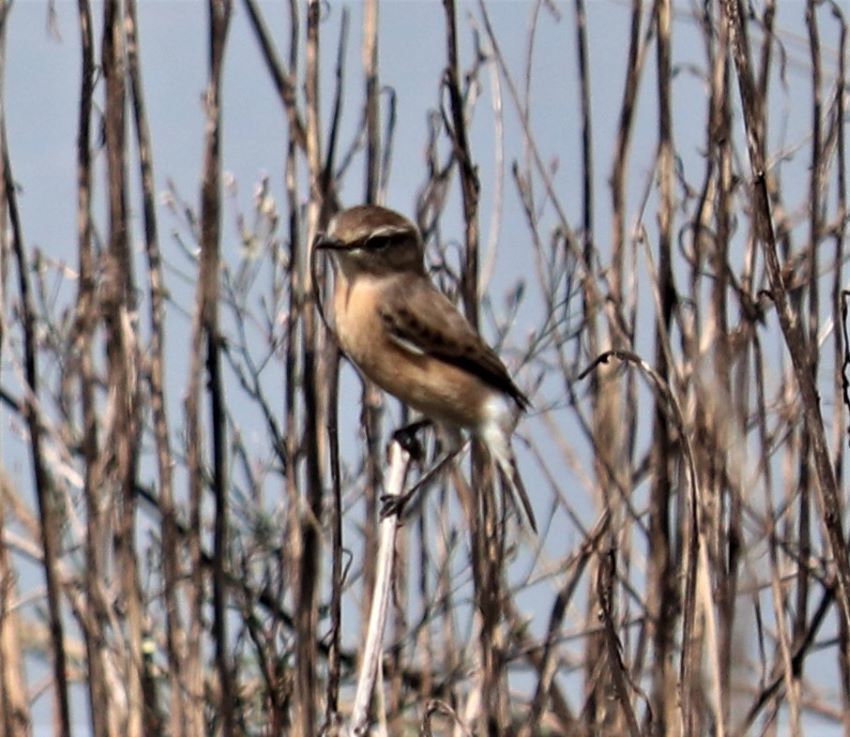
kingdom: Animalia
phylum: Chordata
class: Aves
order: Passeriformes
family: Muscicapidae
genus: Saxicola
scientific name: Saxicola torquatus
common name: African stonechat
